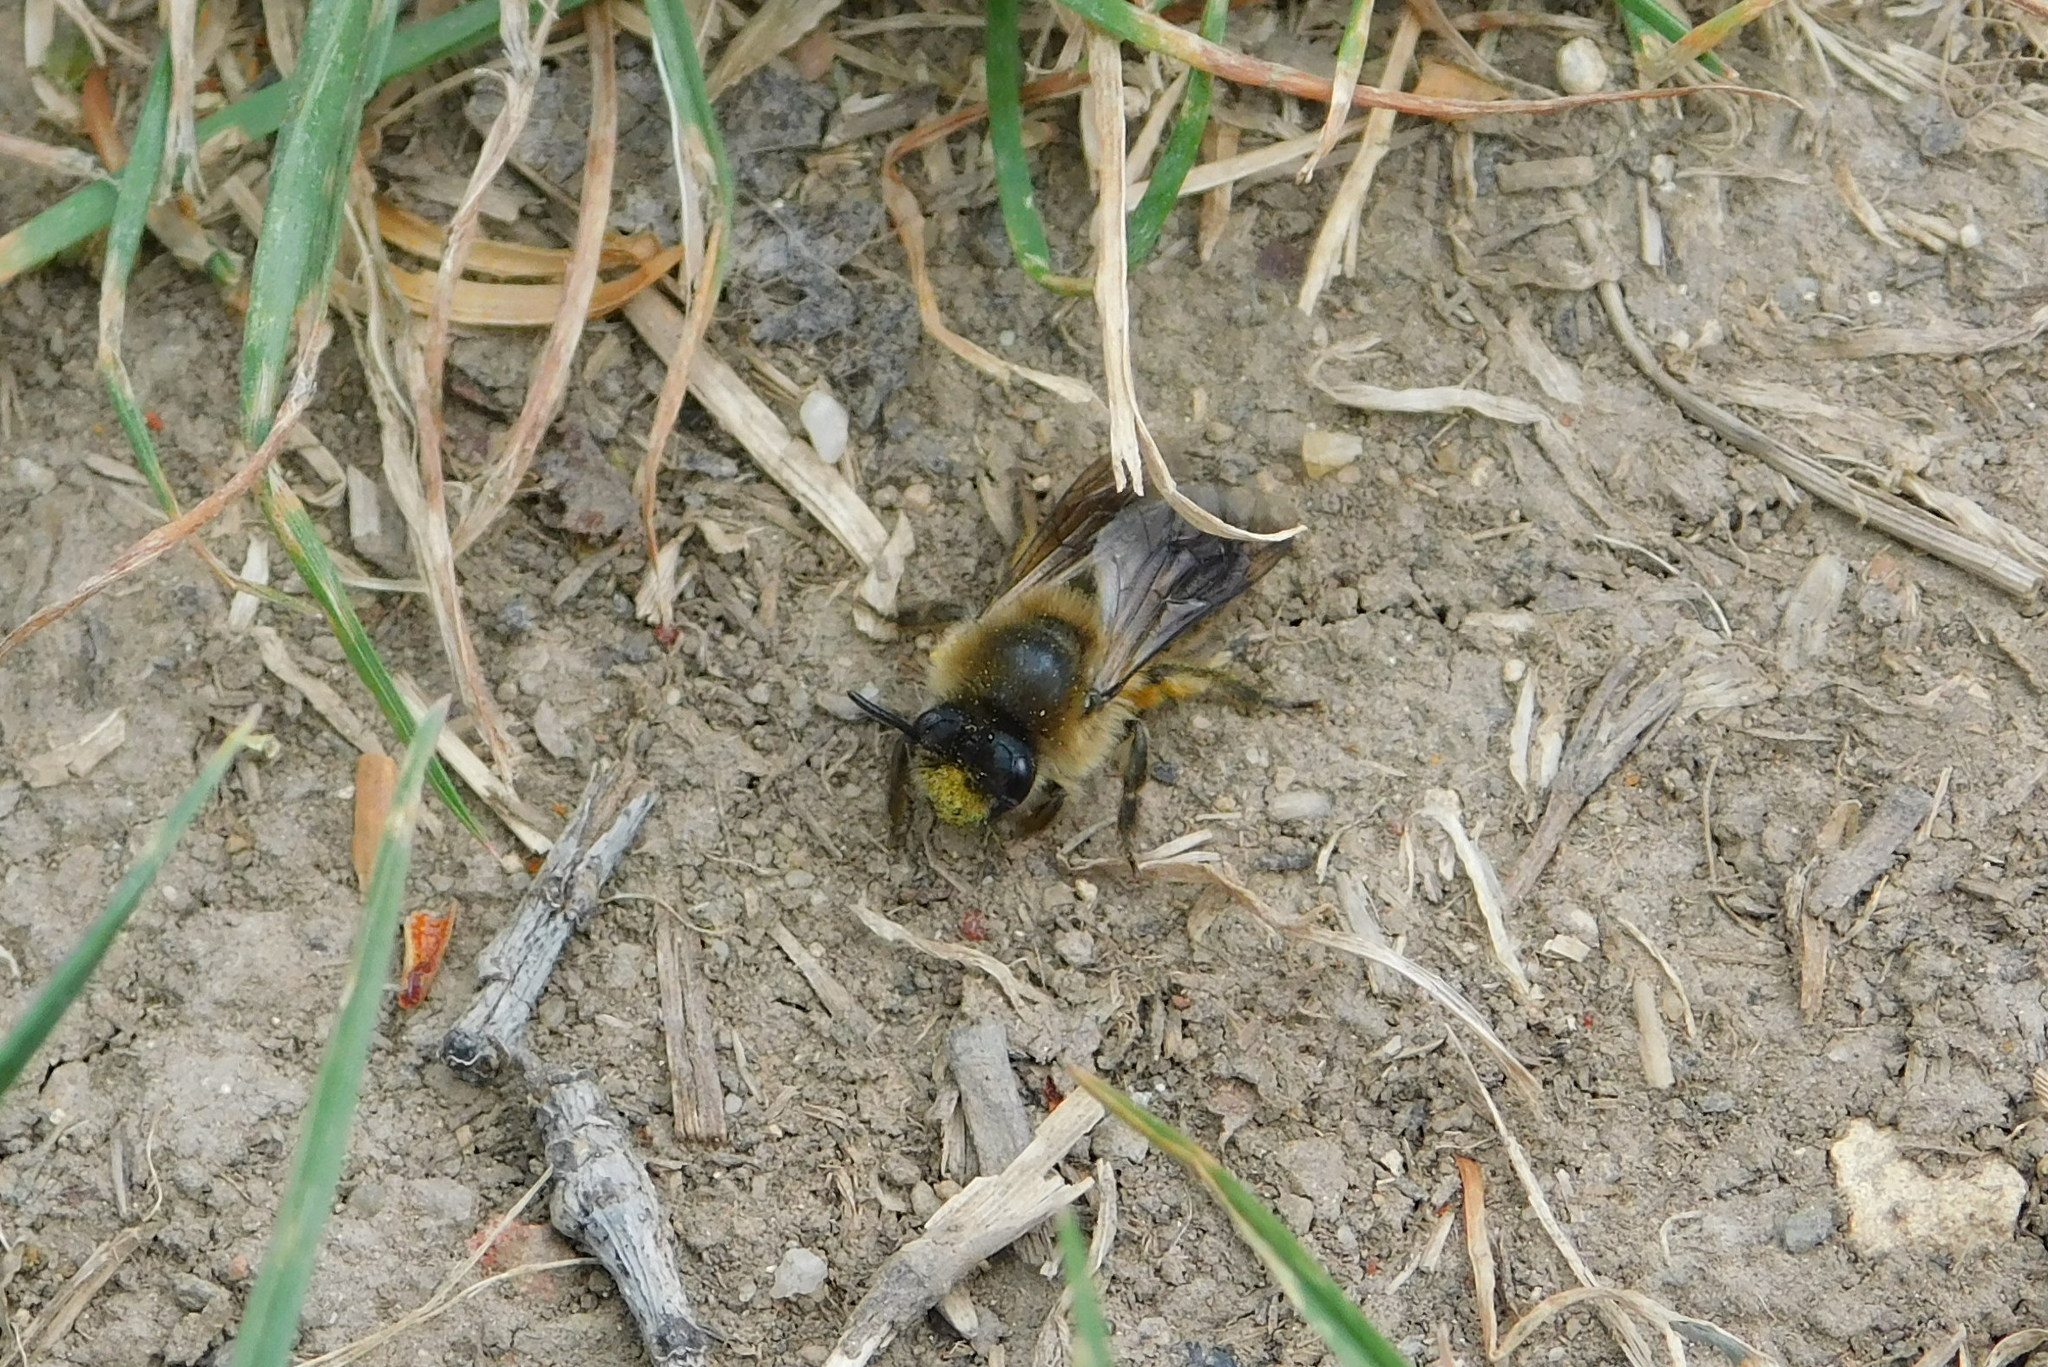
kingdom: Animalia
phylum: Arthropoda
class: Insecta
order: Hymenoptera
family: Colletidae
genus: Colletes
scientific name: Colletes cunicularius
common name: Early colletes
